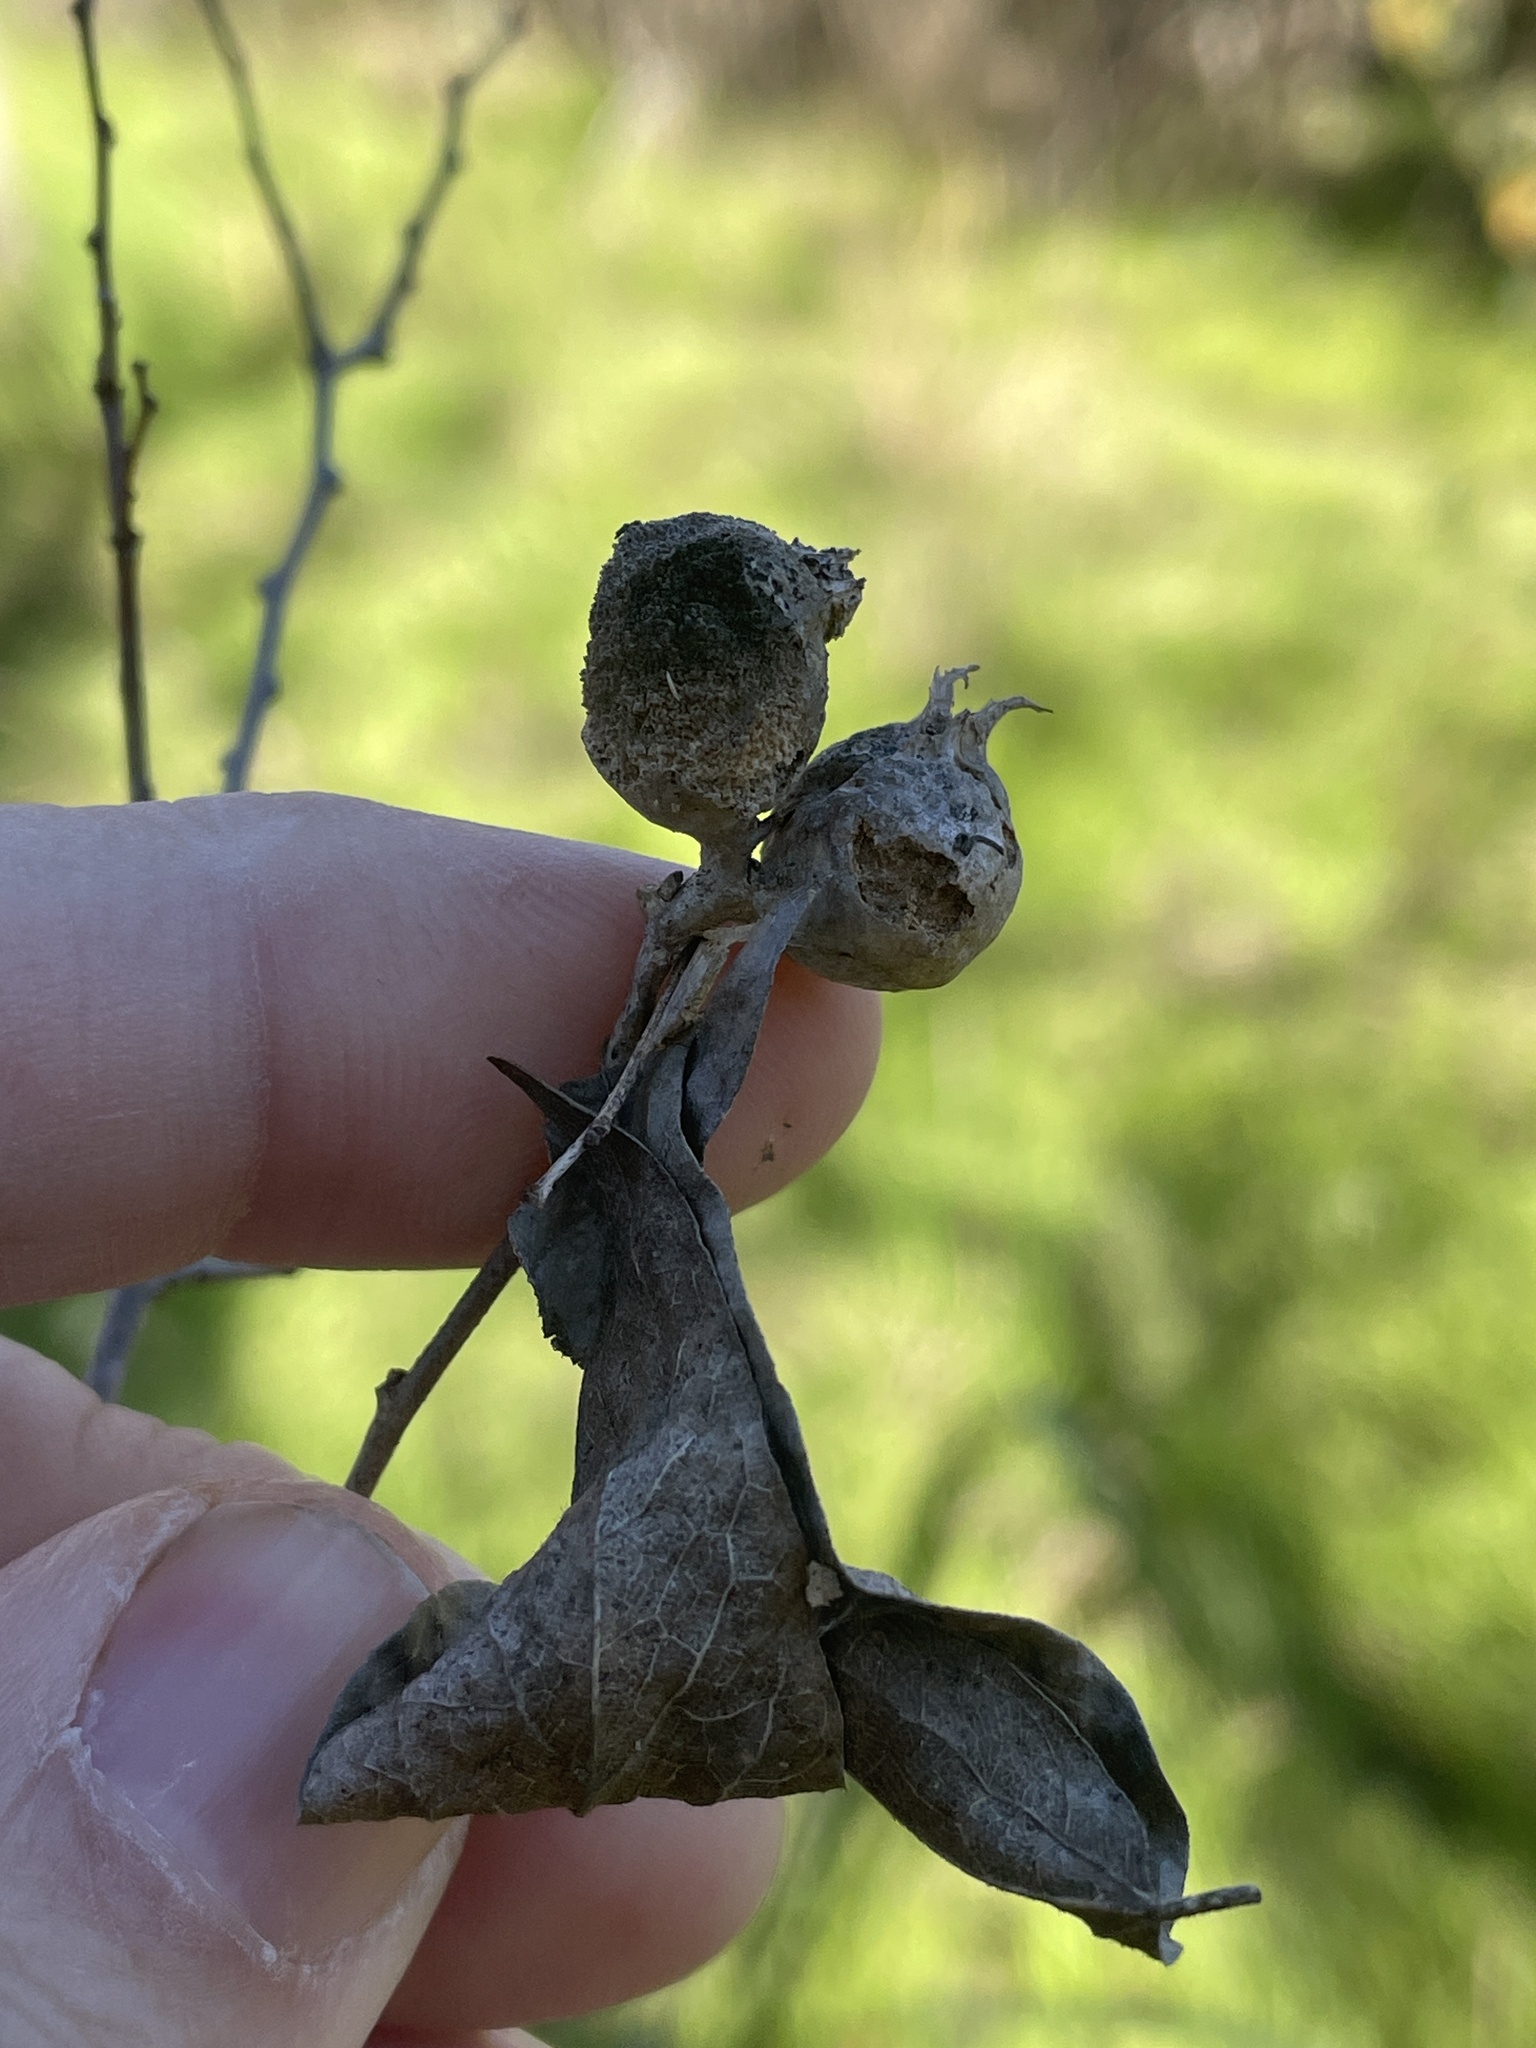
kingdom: Animalia
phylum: Arthropoda
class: Insecta
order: Hemiptera
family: Aphalaridae
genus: Pachypsylla
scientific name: Pachypsylla venusta
